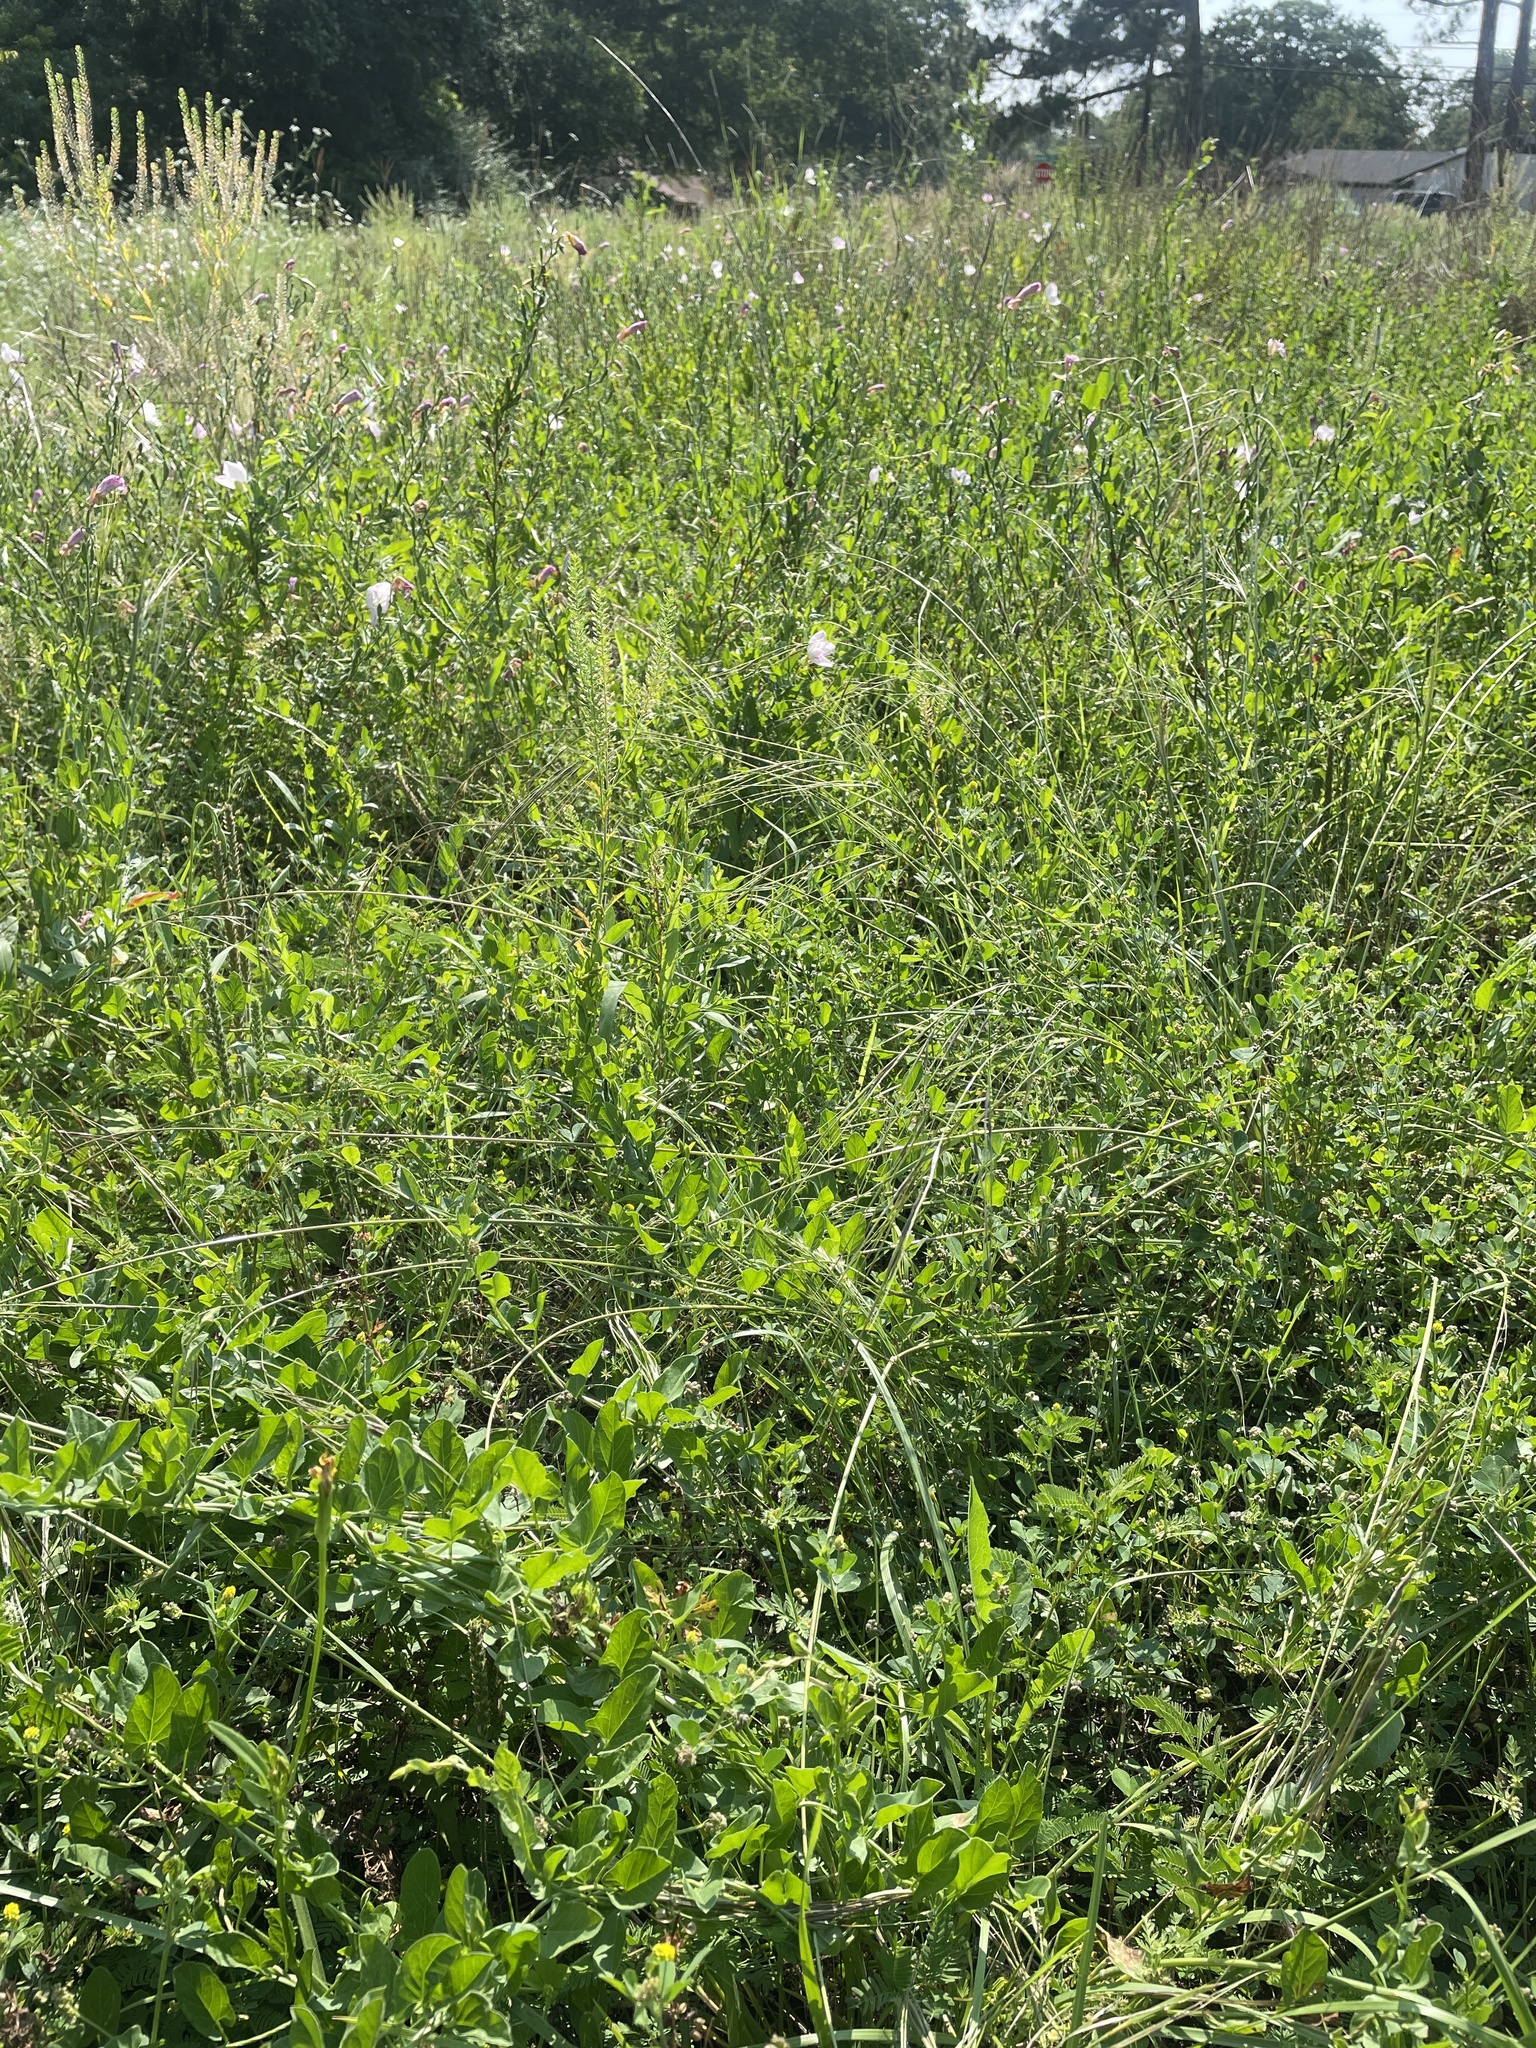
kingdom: Plantae
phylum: Tracheophyta
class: Liliopsida
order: Poales
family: Poaceae
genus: Nassella
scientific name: Nassella leucotricha
